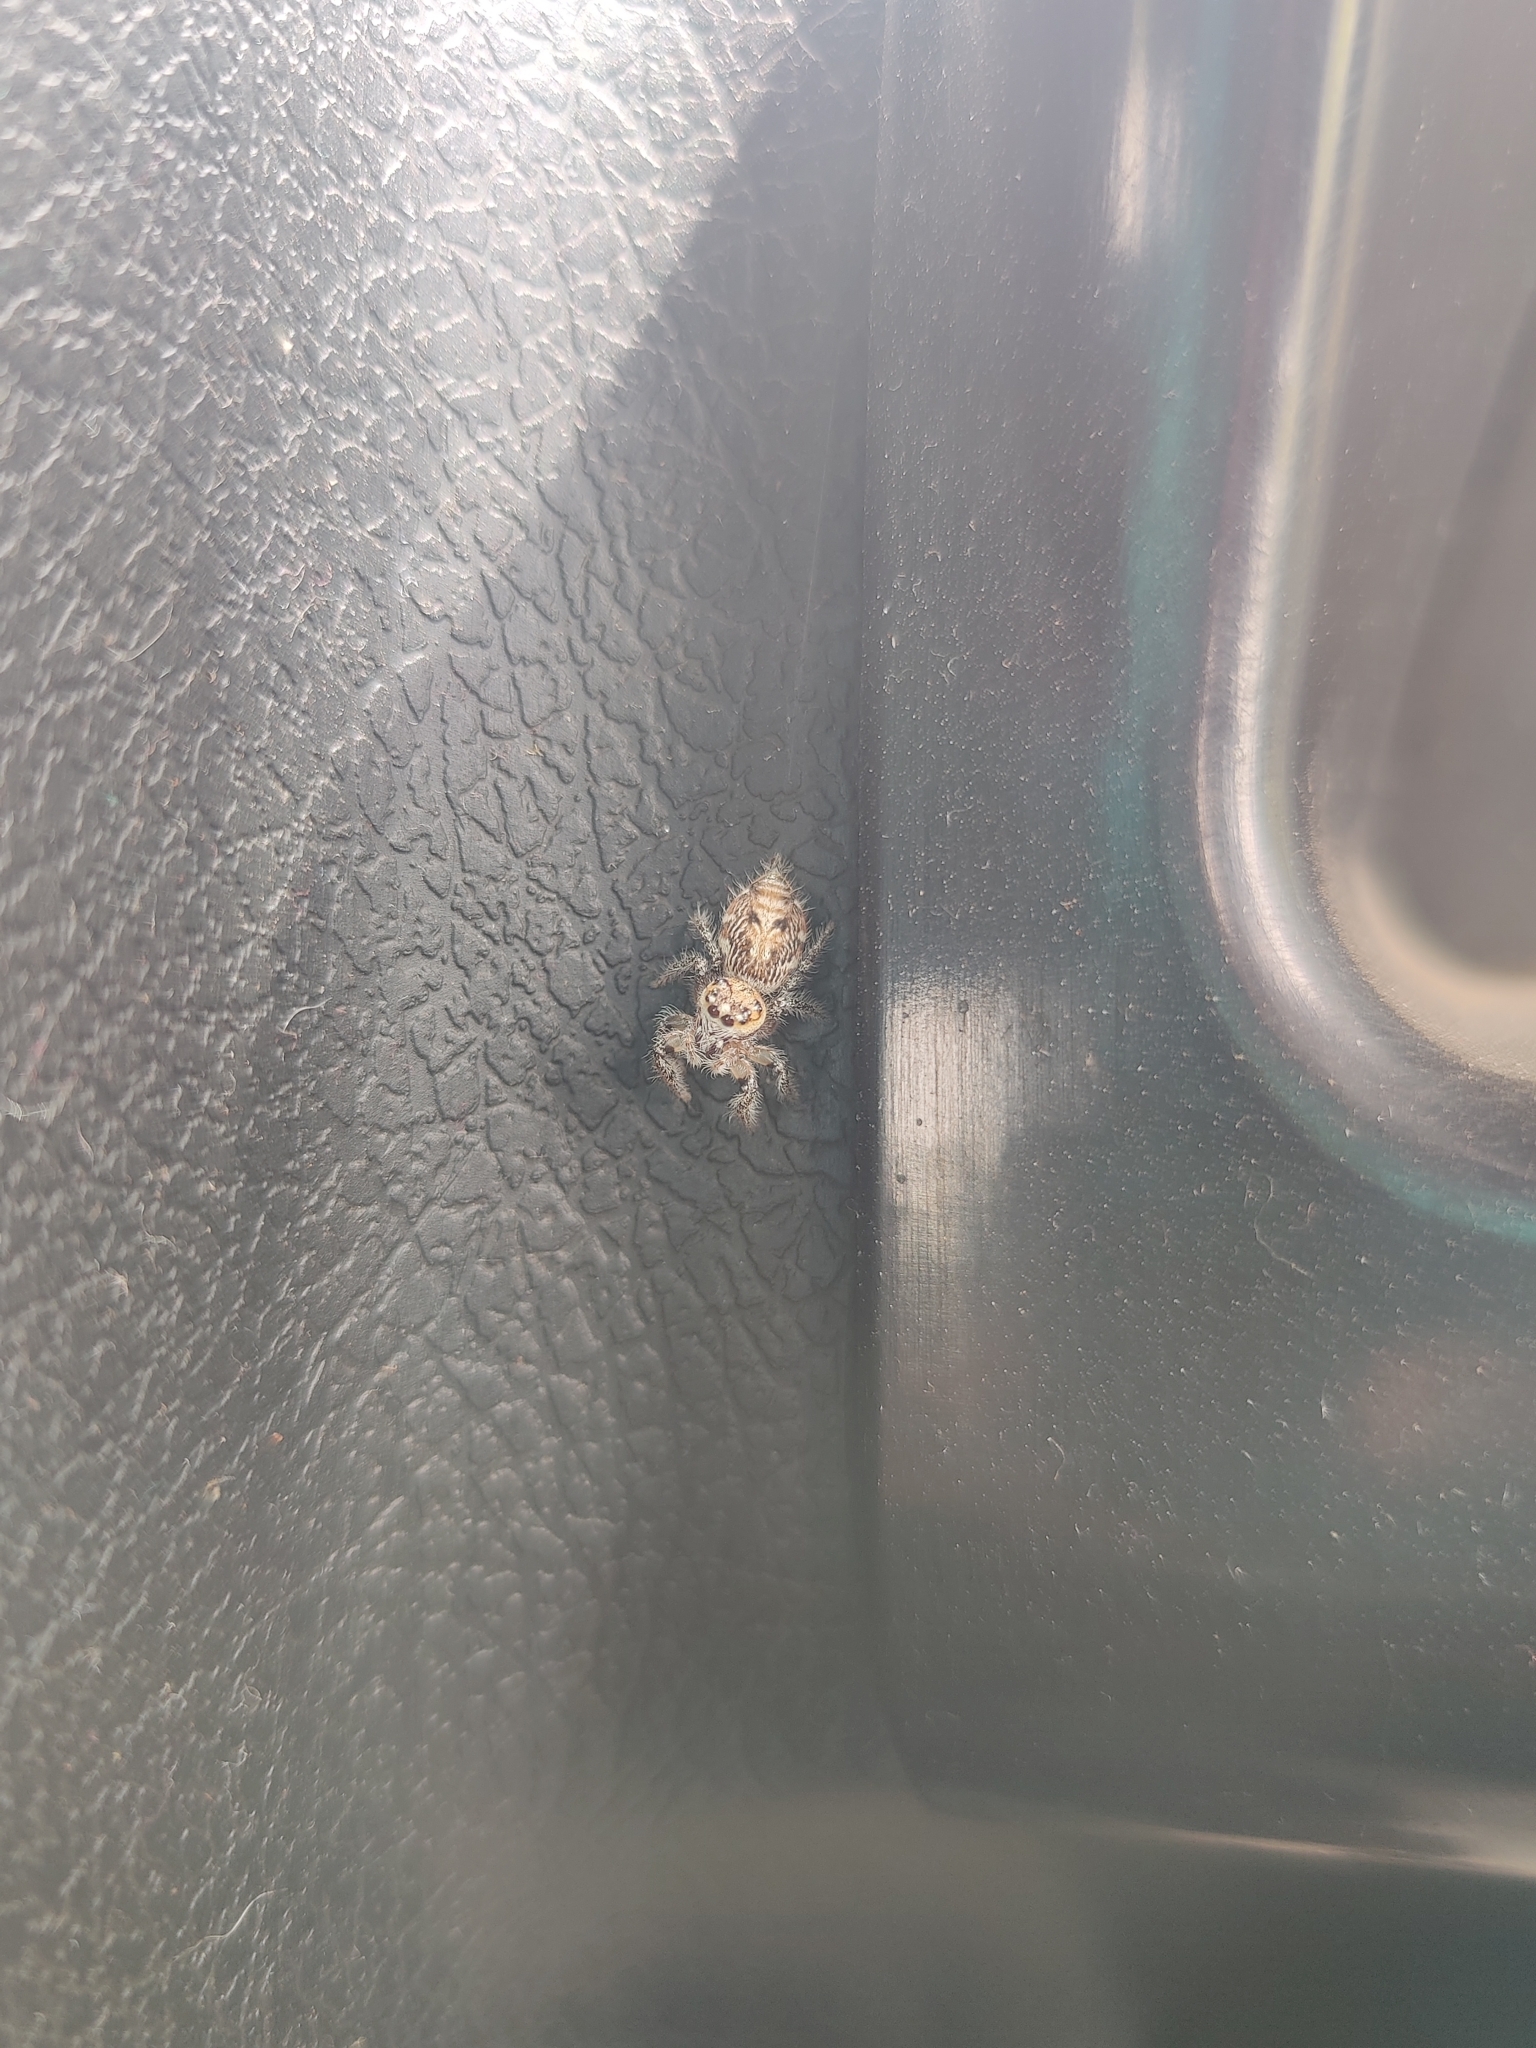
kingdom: Animalia
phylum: Arthropoda
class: Arachnida
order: Araneae
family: Salticidae
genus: Hyllus
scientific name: Hyllus semicupreus
